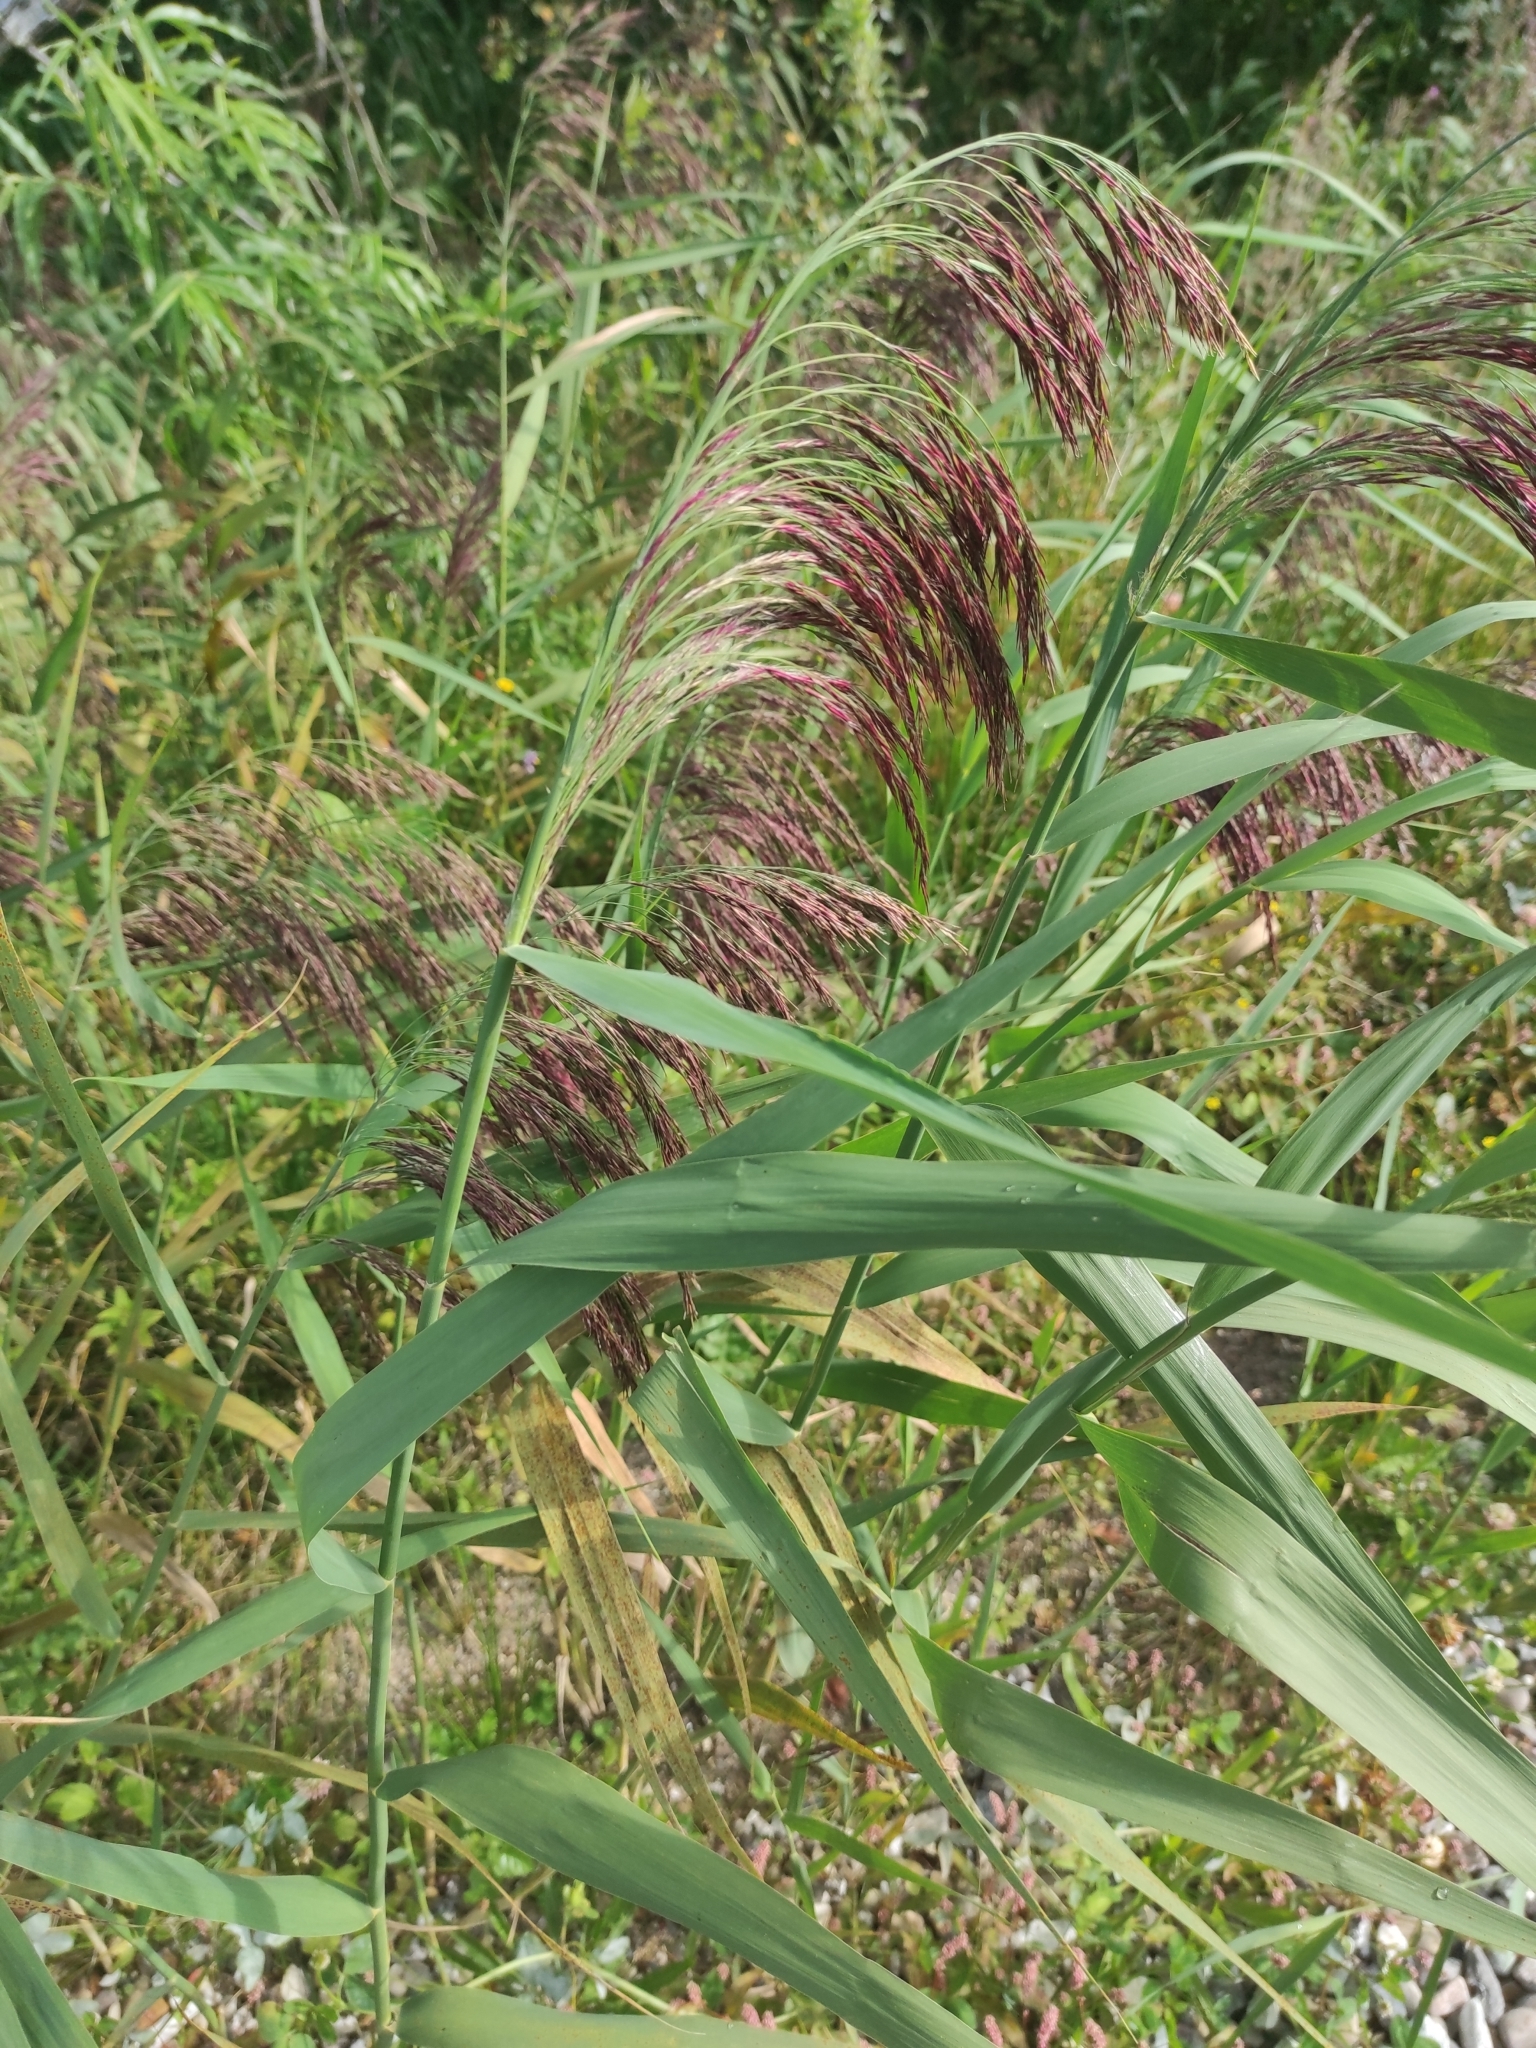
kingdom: Plantae
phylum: Tracheophyta
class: Liliopsida
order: Poales
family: Poaceae
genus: Phragmites
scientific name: Phragmites australis
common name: Common reed
